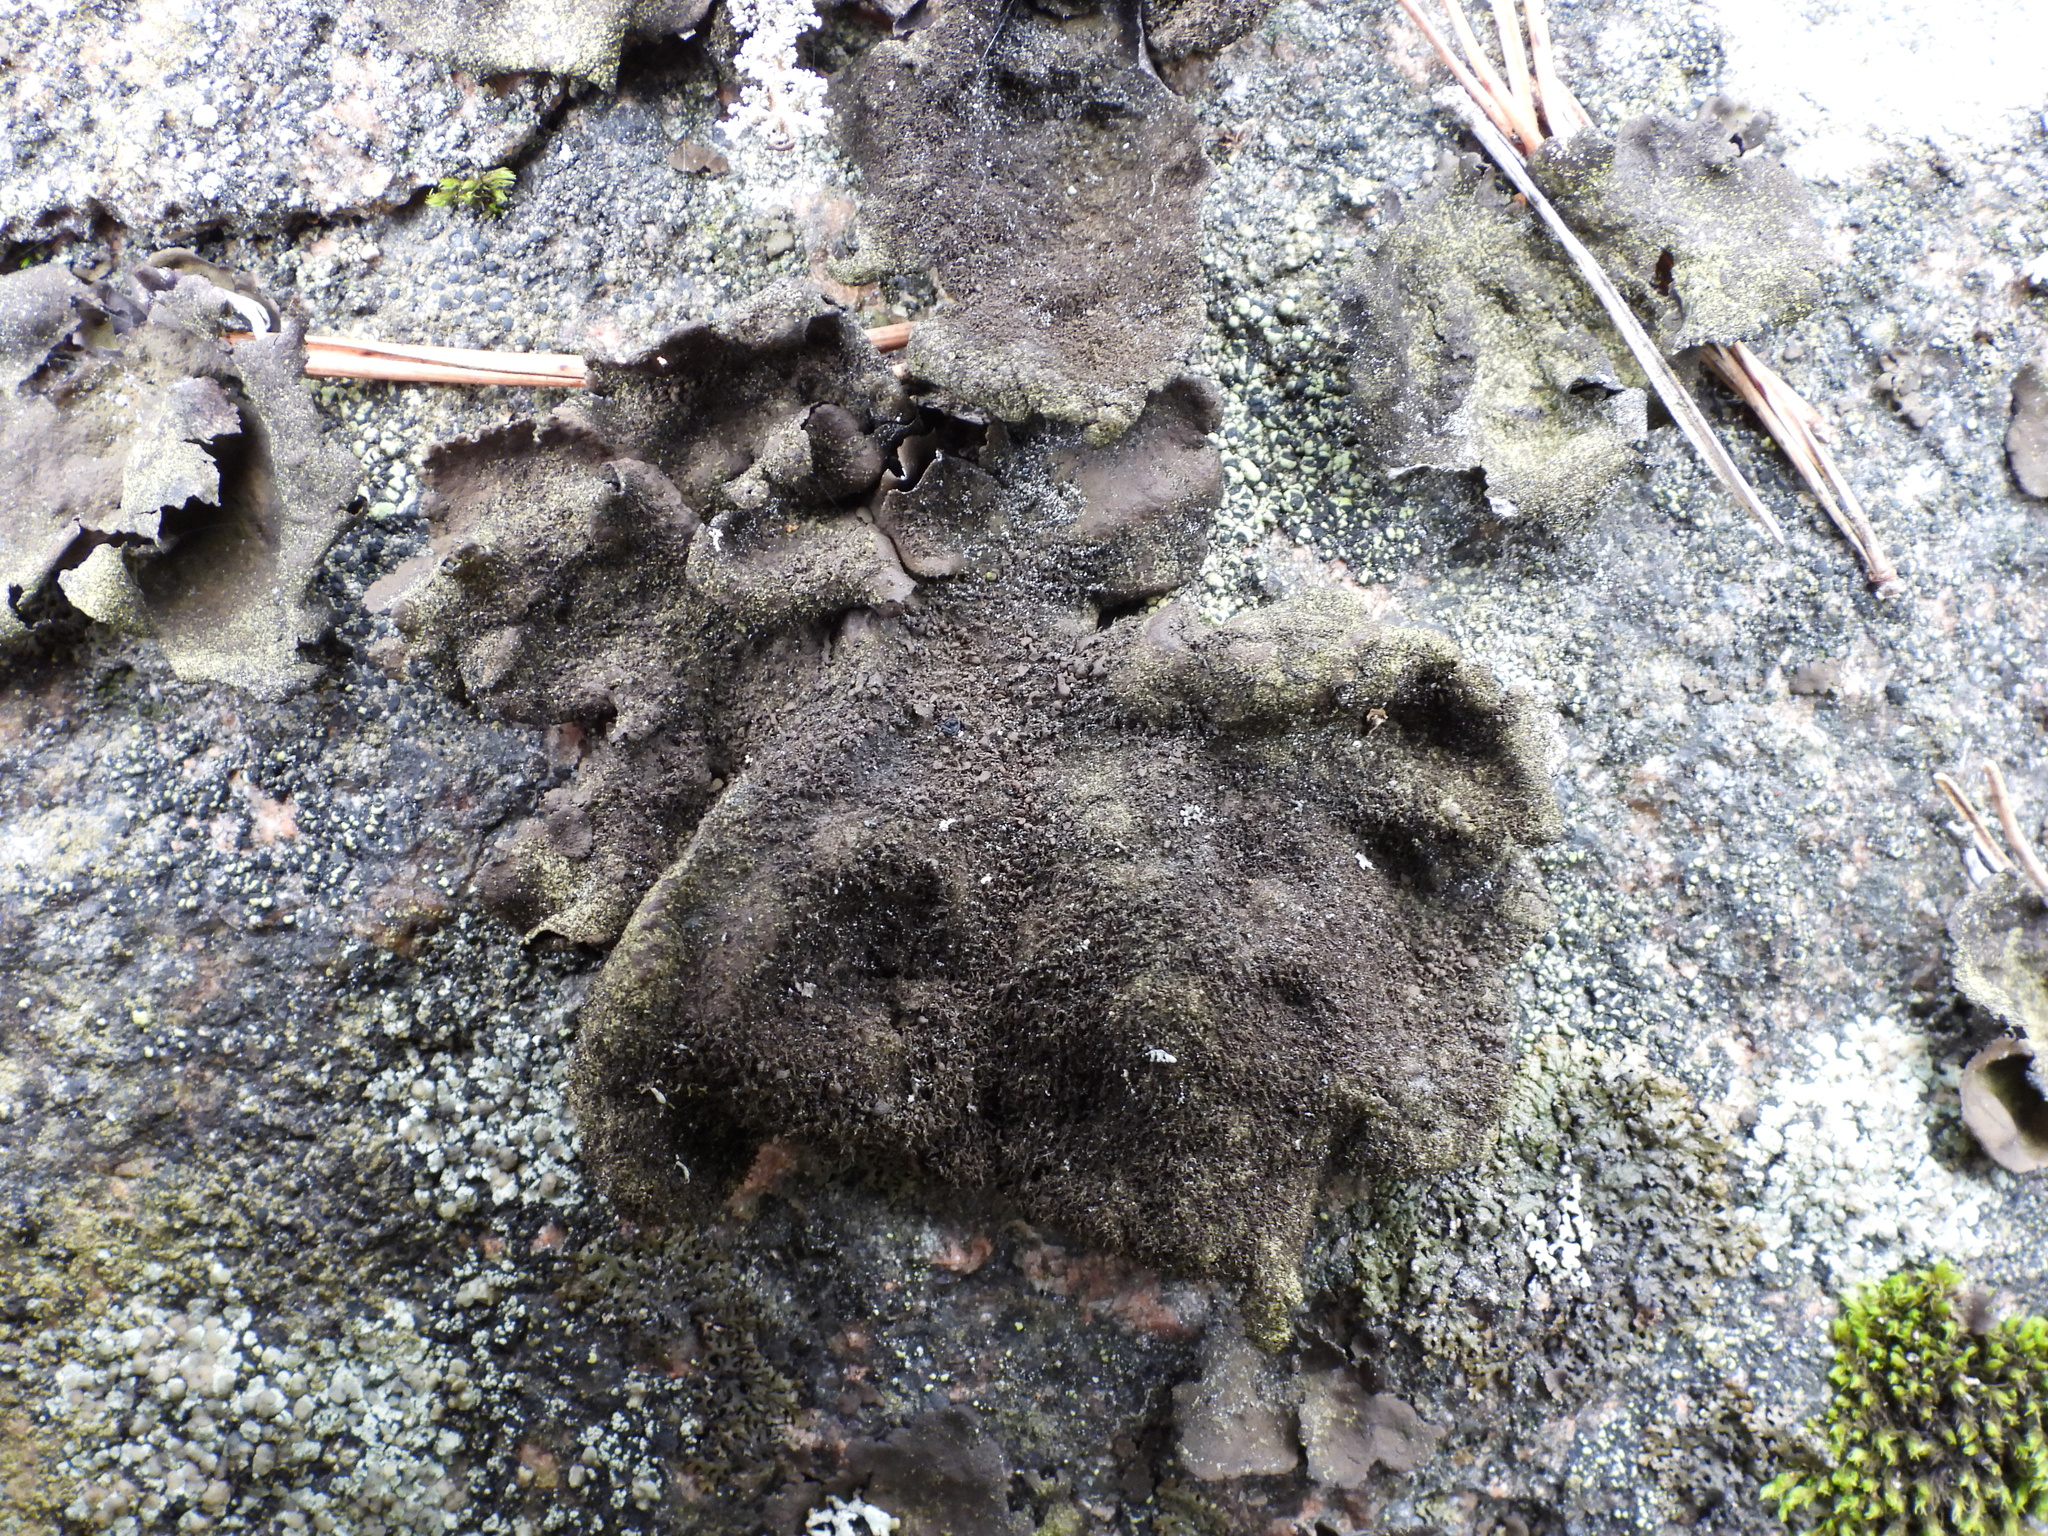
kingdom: Fungi
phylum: Ascomycota
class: Lecanoromycetes
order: Umbilicariales
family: Umbilicariaceae
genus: Umbilicaria
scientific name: Umbilicaria deusta
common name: Peppered rock tripe
